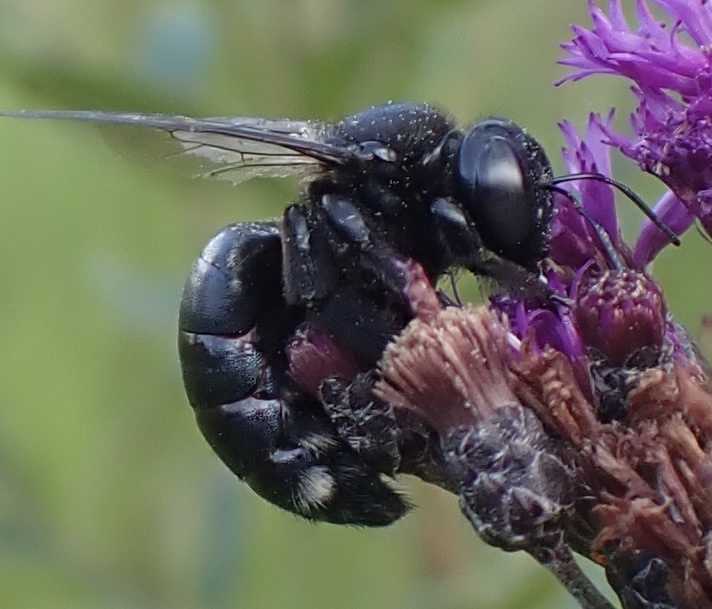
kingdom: Animalia
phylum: Arthropoda
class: Insecta
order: Hymenoptera
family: Apidae
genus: Xylocopa
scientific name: Xylocopa micans
